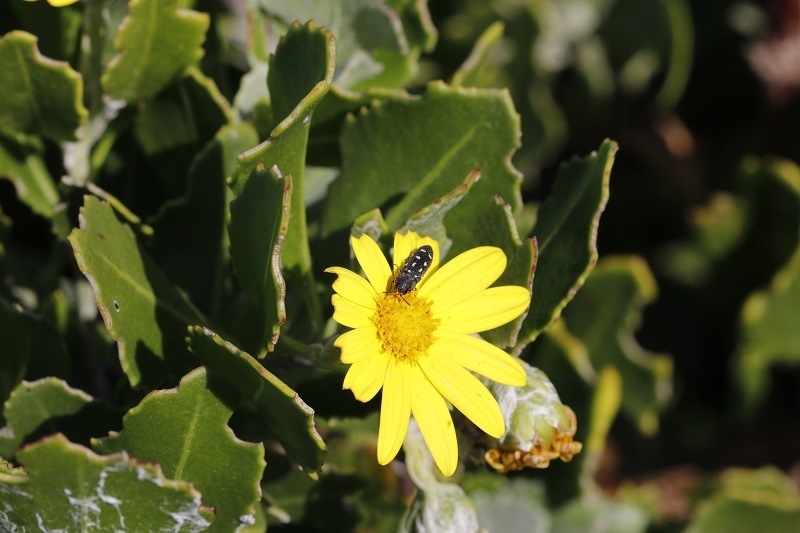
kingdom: Animalia
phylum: Arthropoda
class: Insecta
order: Coleoptera
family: Buprestidae
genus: Acmaeodera
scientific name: Acmaeodera decemguttata
